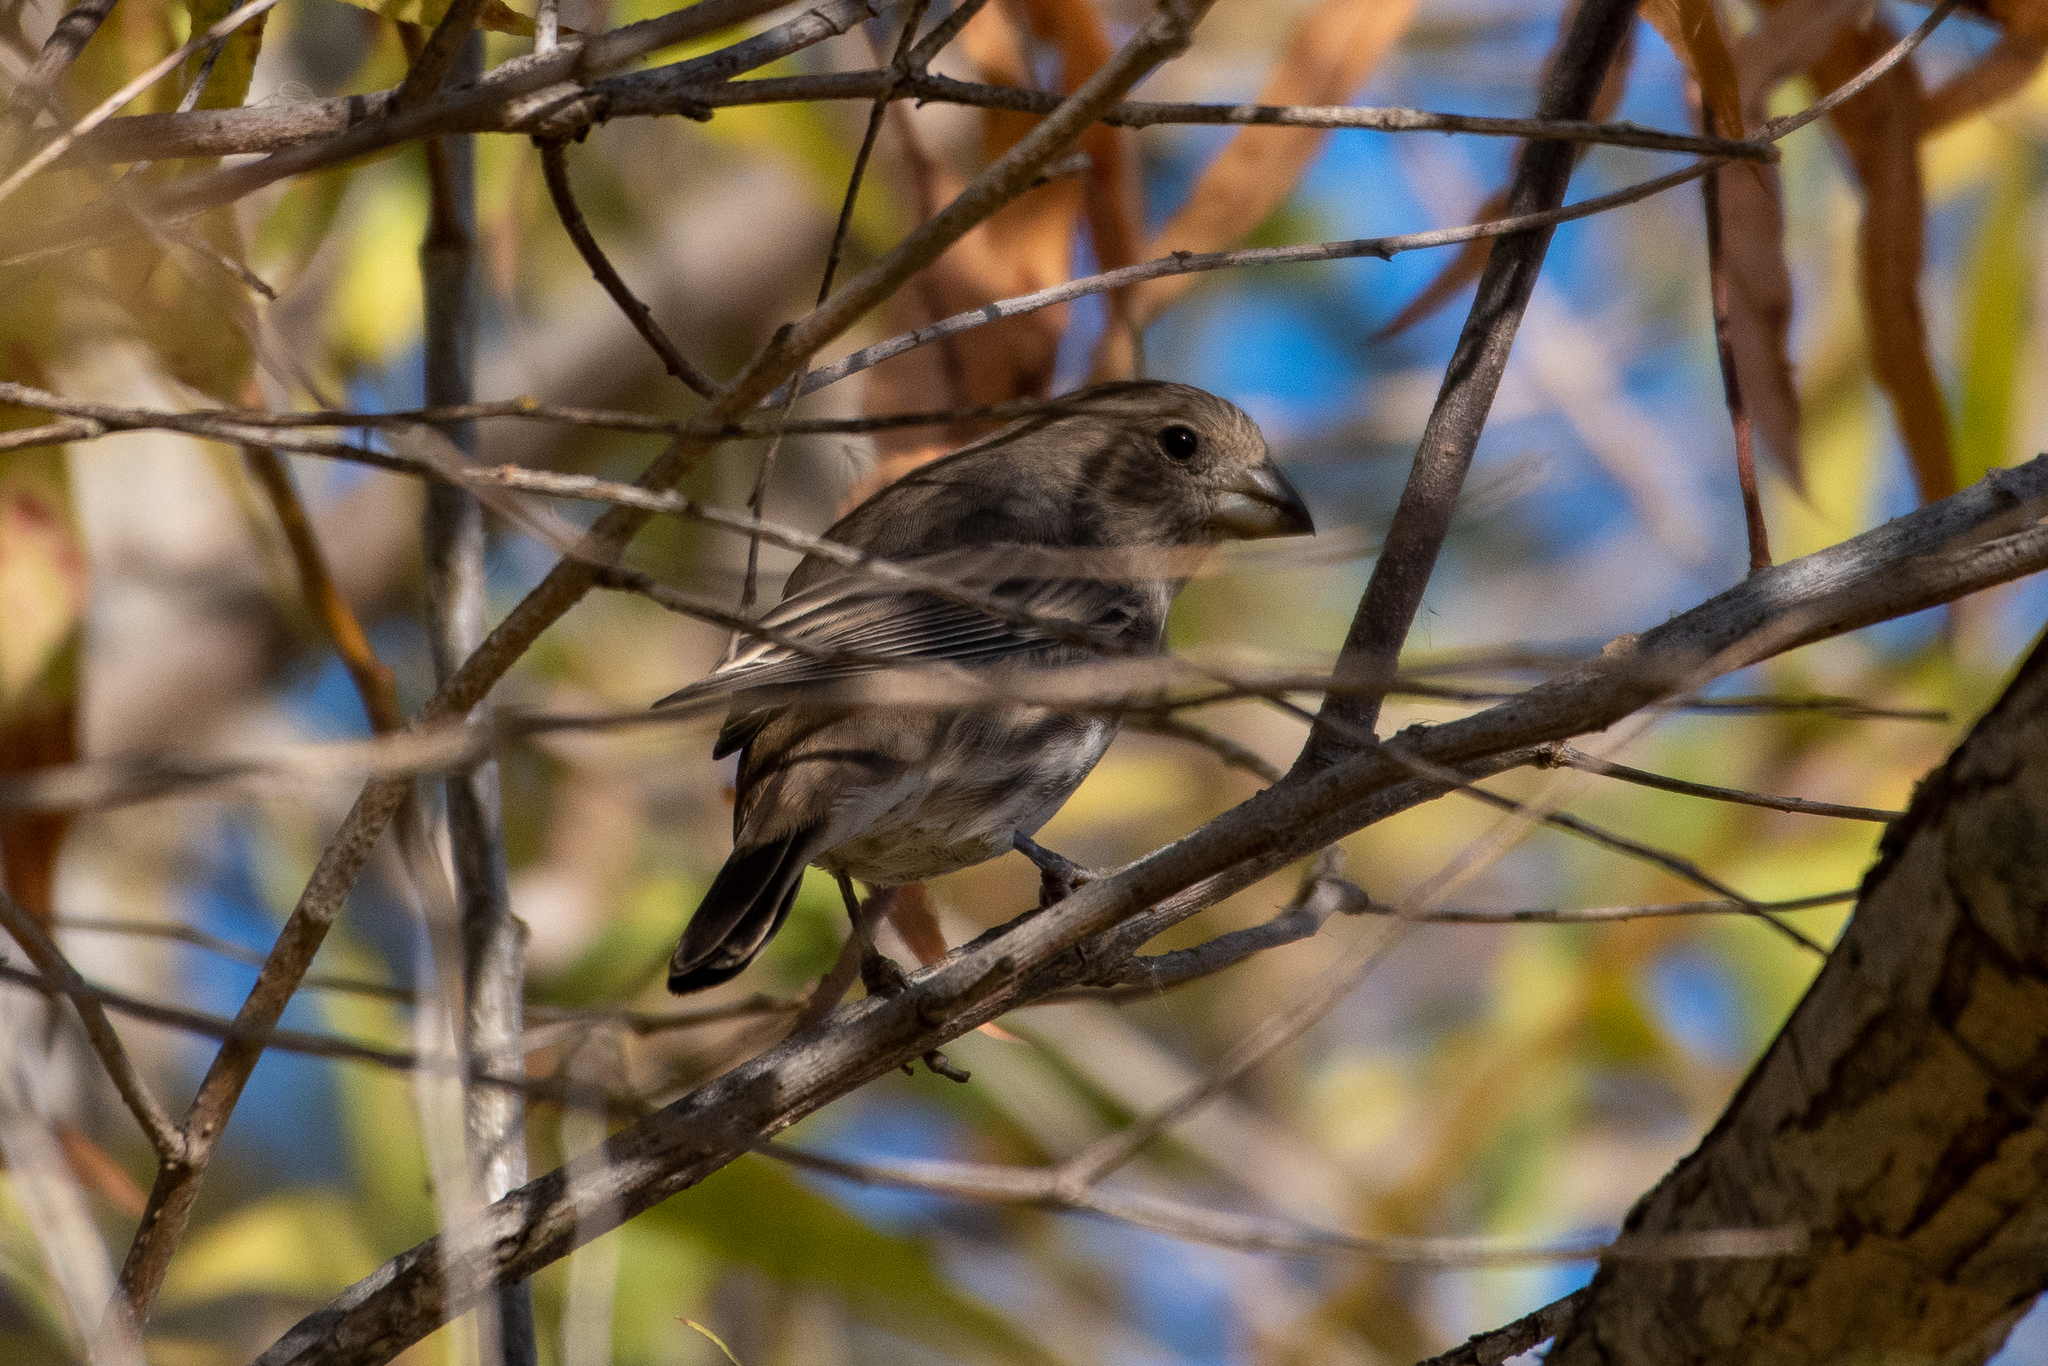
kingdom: Animalia
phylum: Chordata
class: Aves
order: Passeriformes
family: Fringillidae
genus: Haemorhous
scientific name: Haemorhous mexicanus
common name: House finch
